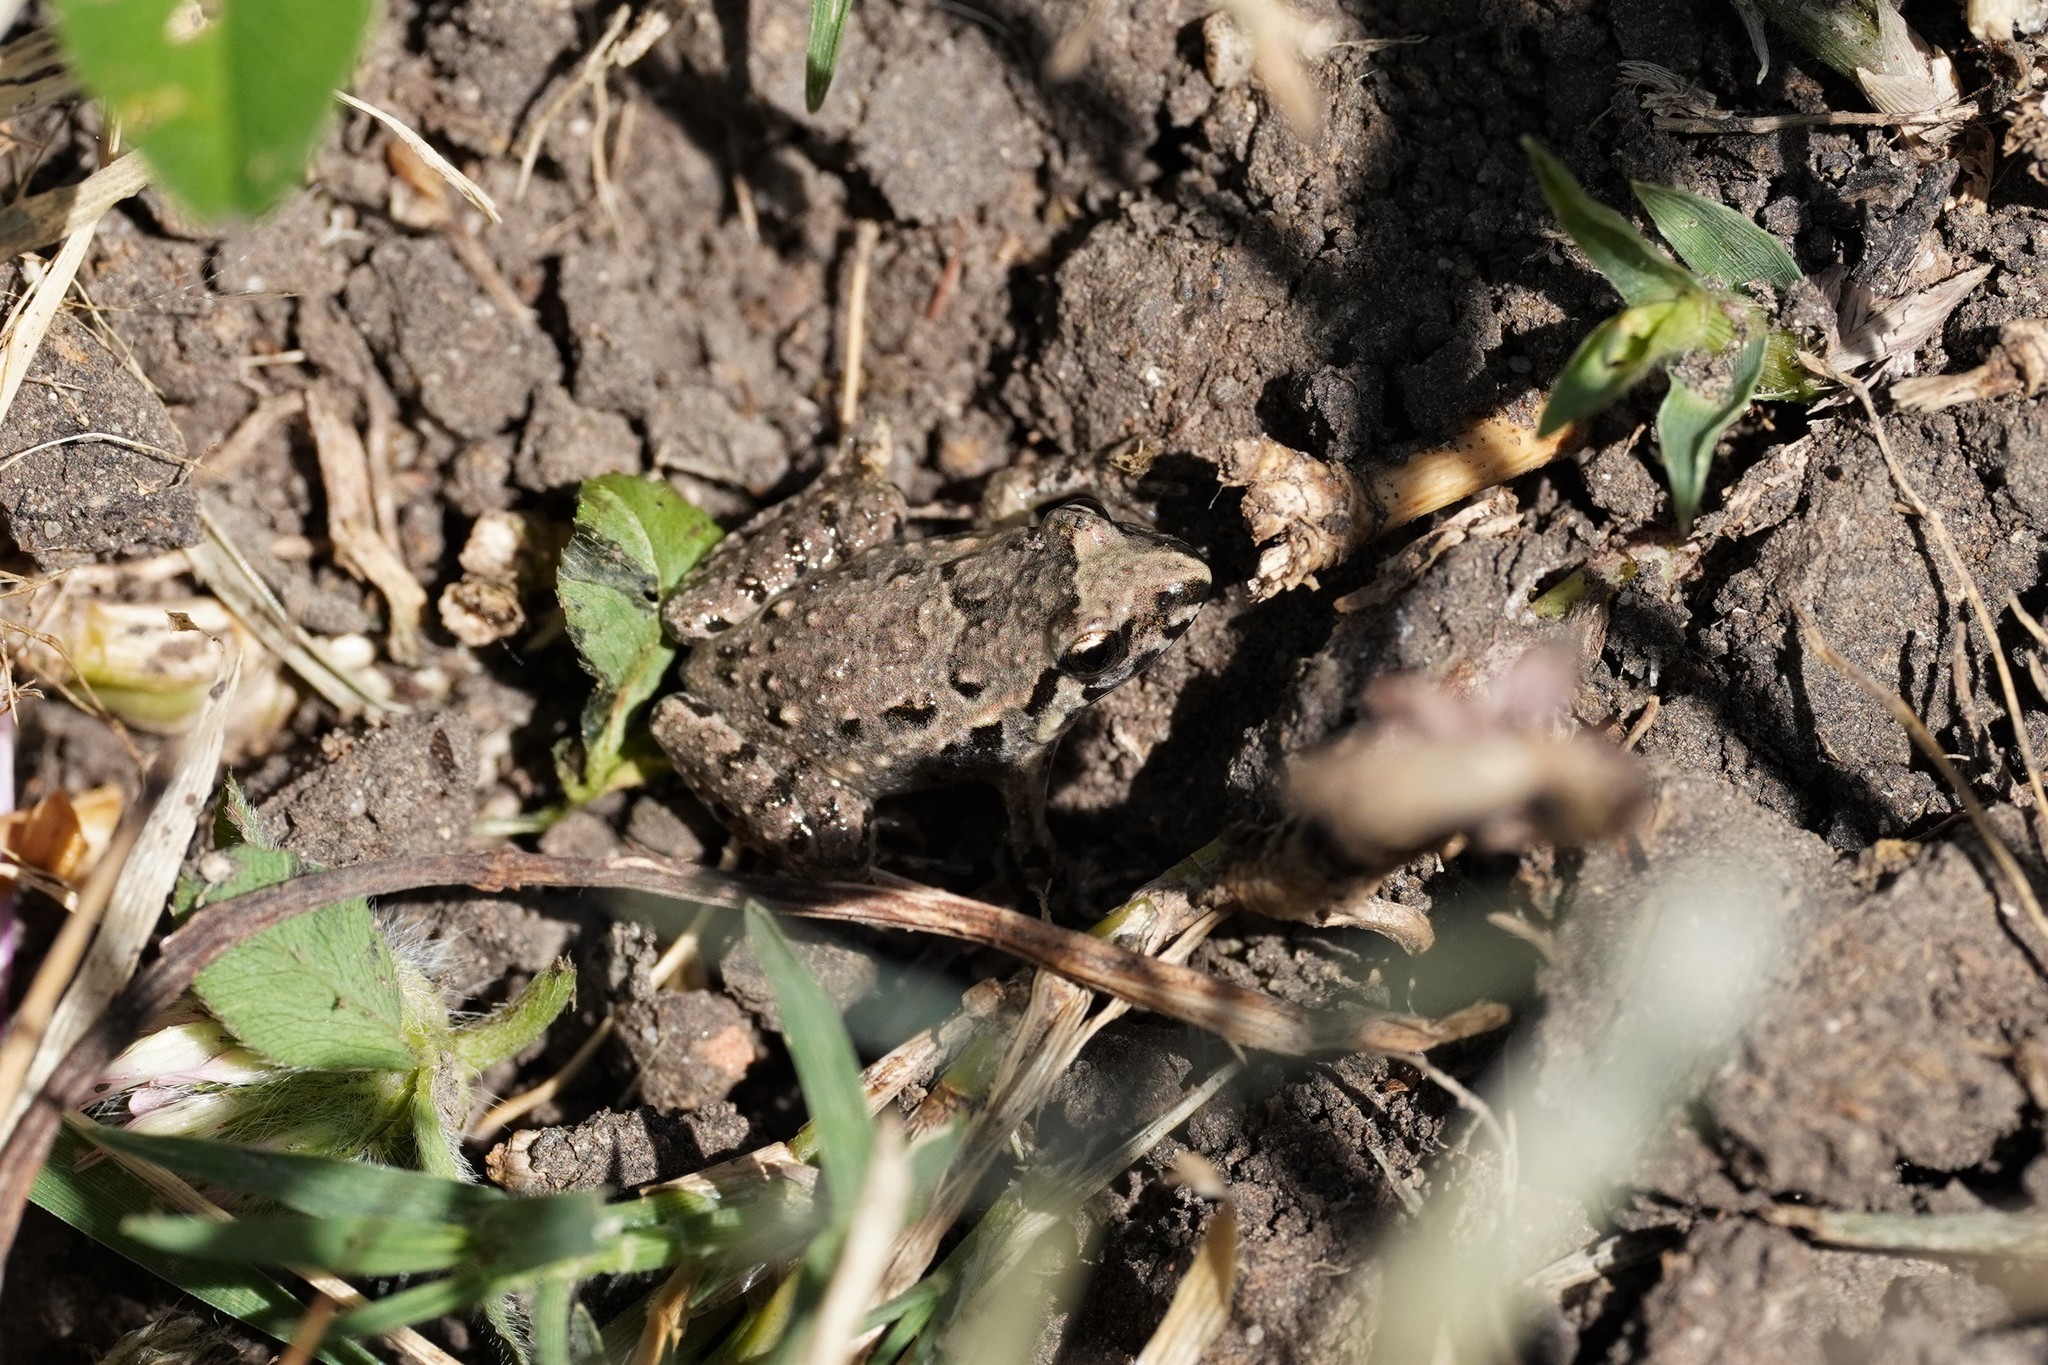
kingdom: Animalia
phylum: Chordata
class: Amphibia
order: Anura
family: Alytidae
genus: Discoglossus
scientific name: Discoglossus jeanneae
